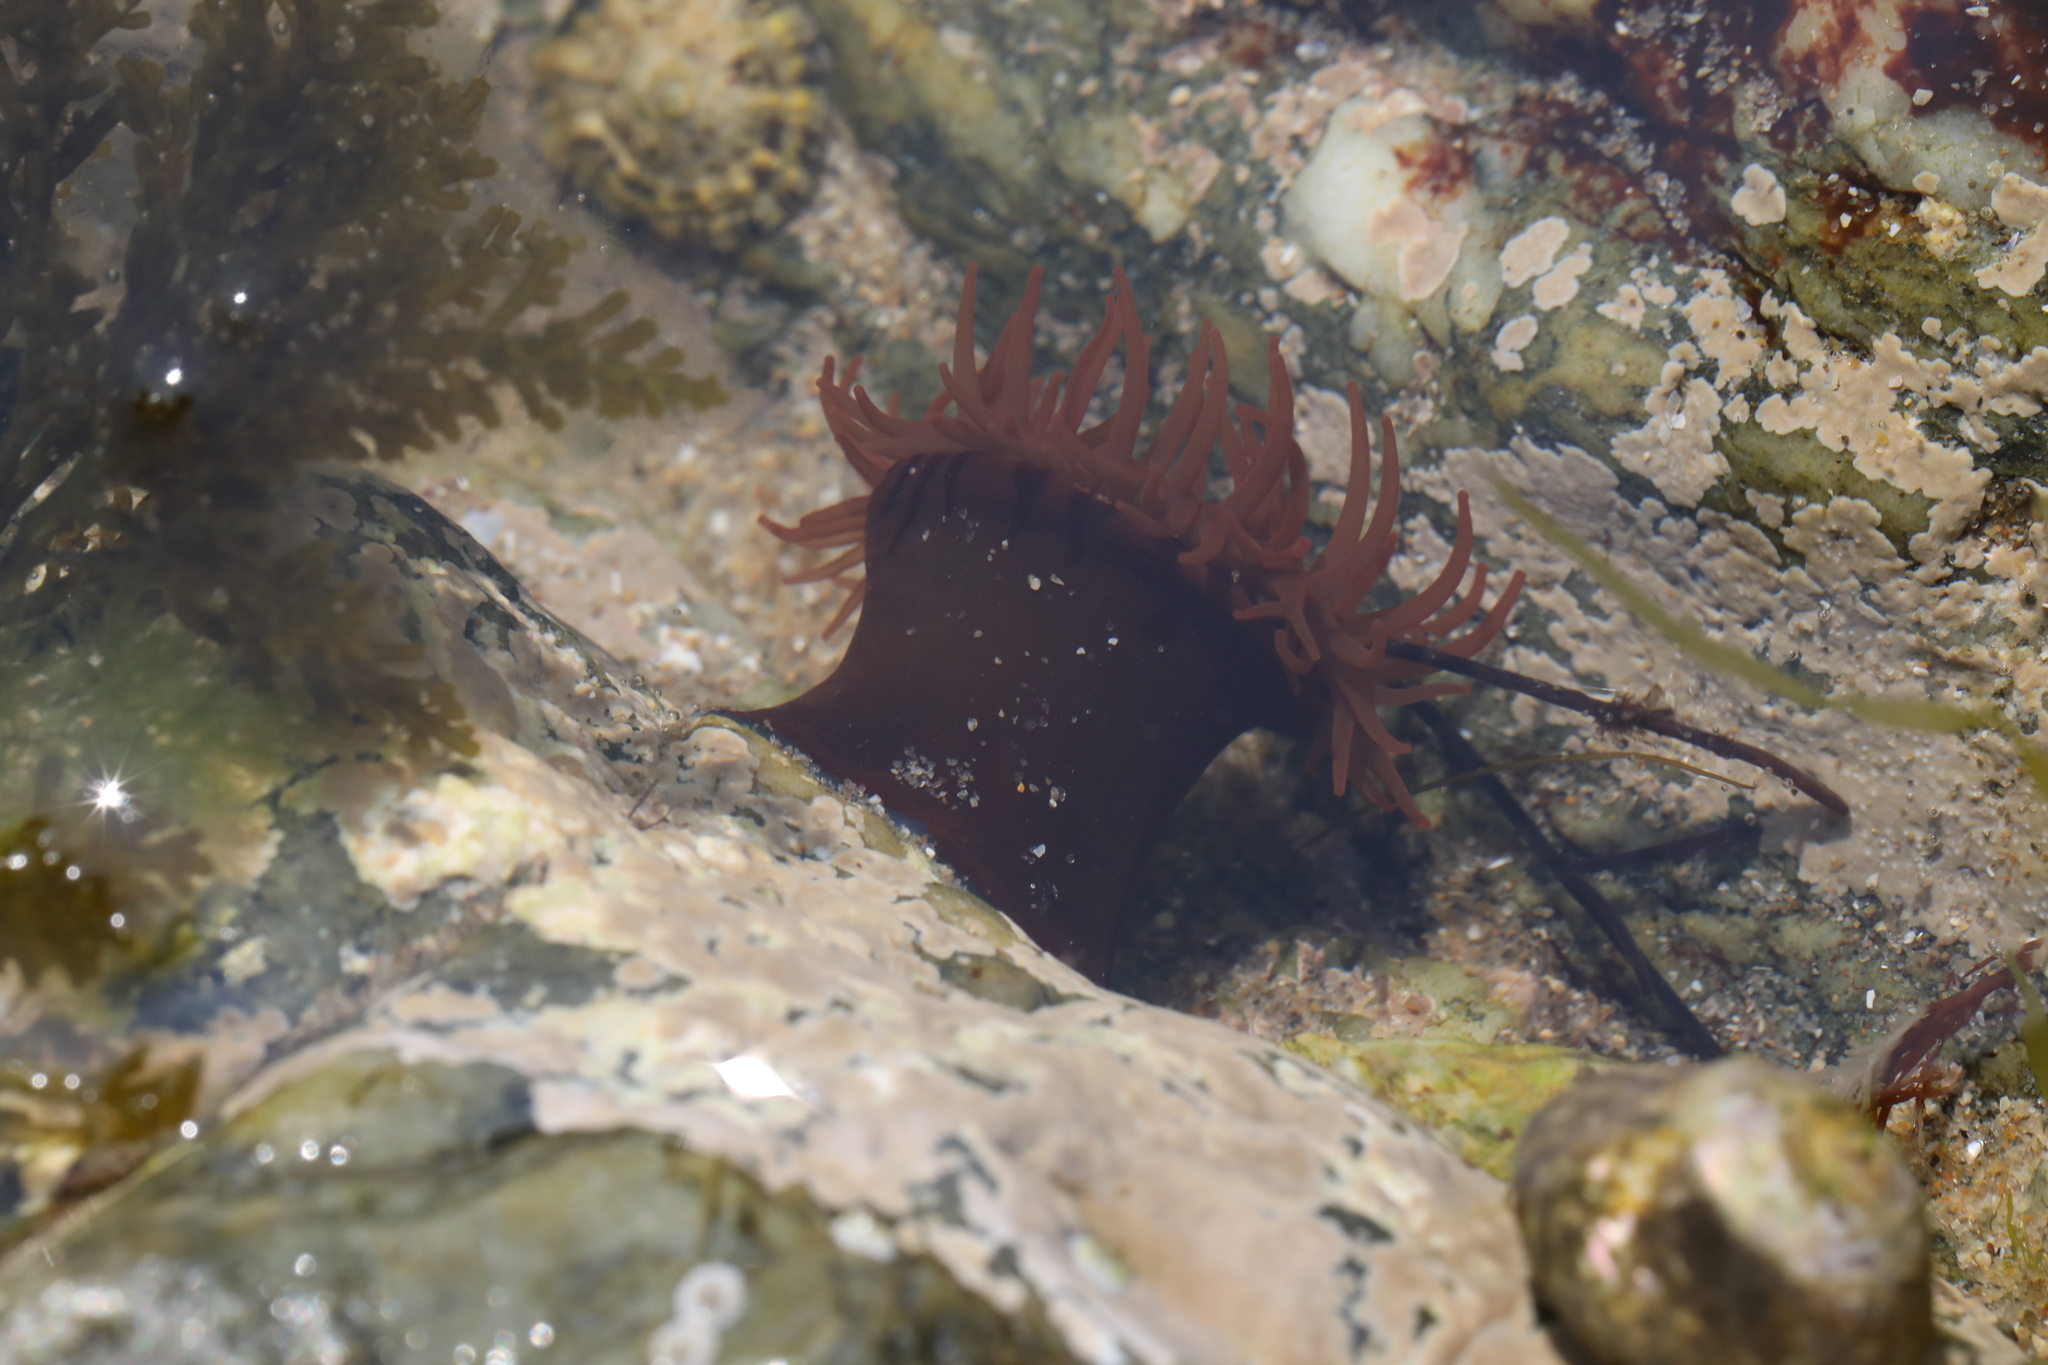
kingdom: Animalia
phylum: Cnidaria
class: Anthozoa
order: Actiniaria
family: Actiniidae
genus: Actinia
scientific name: Actinia equina
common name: Beadlet anemone
